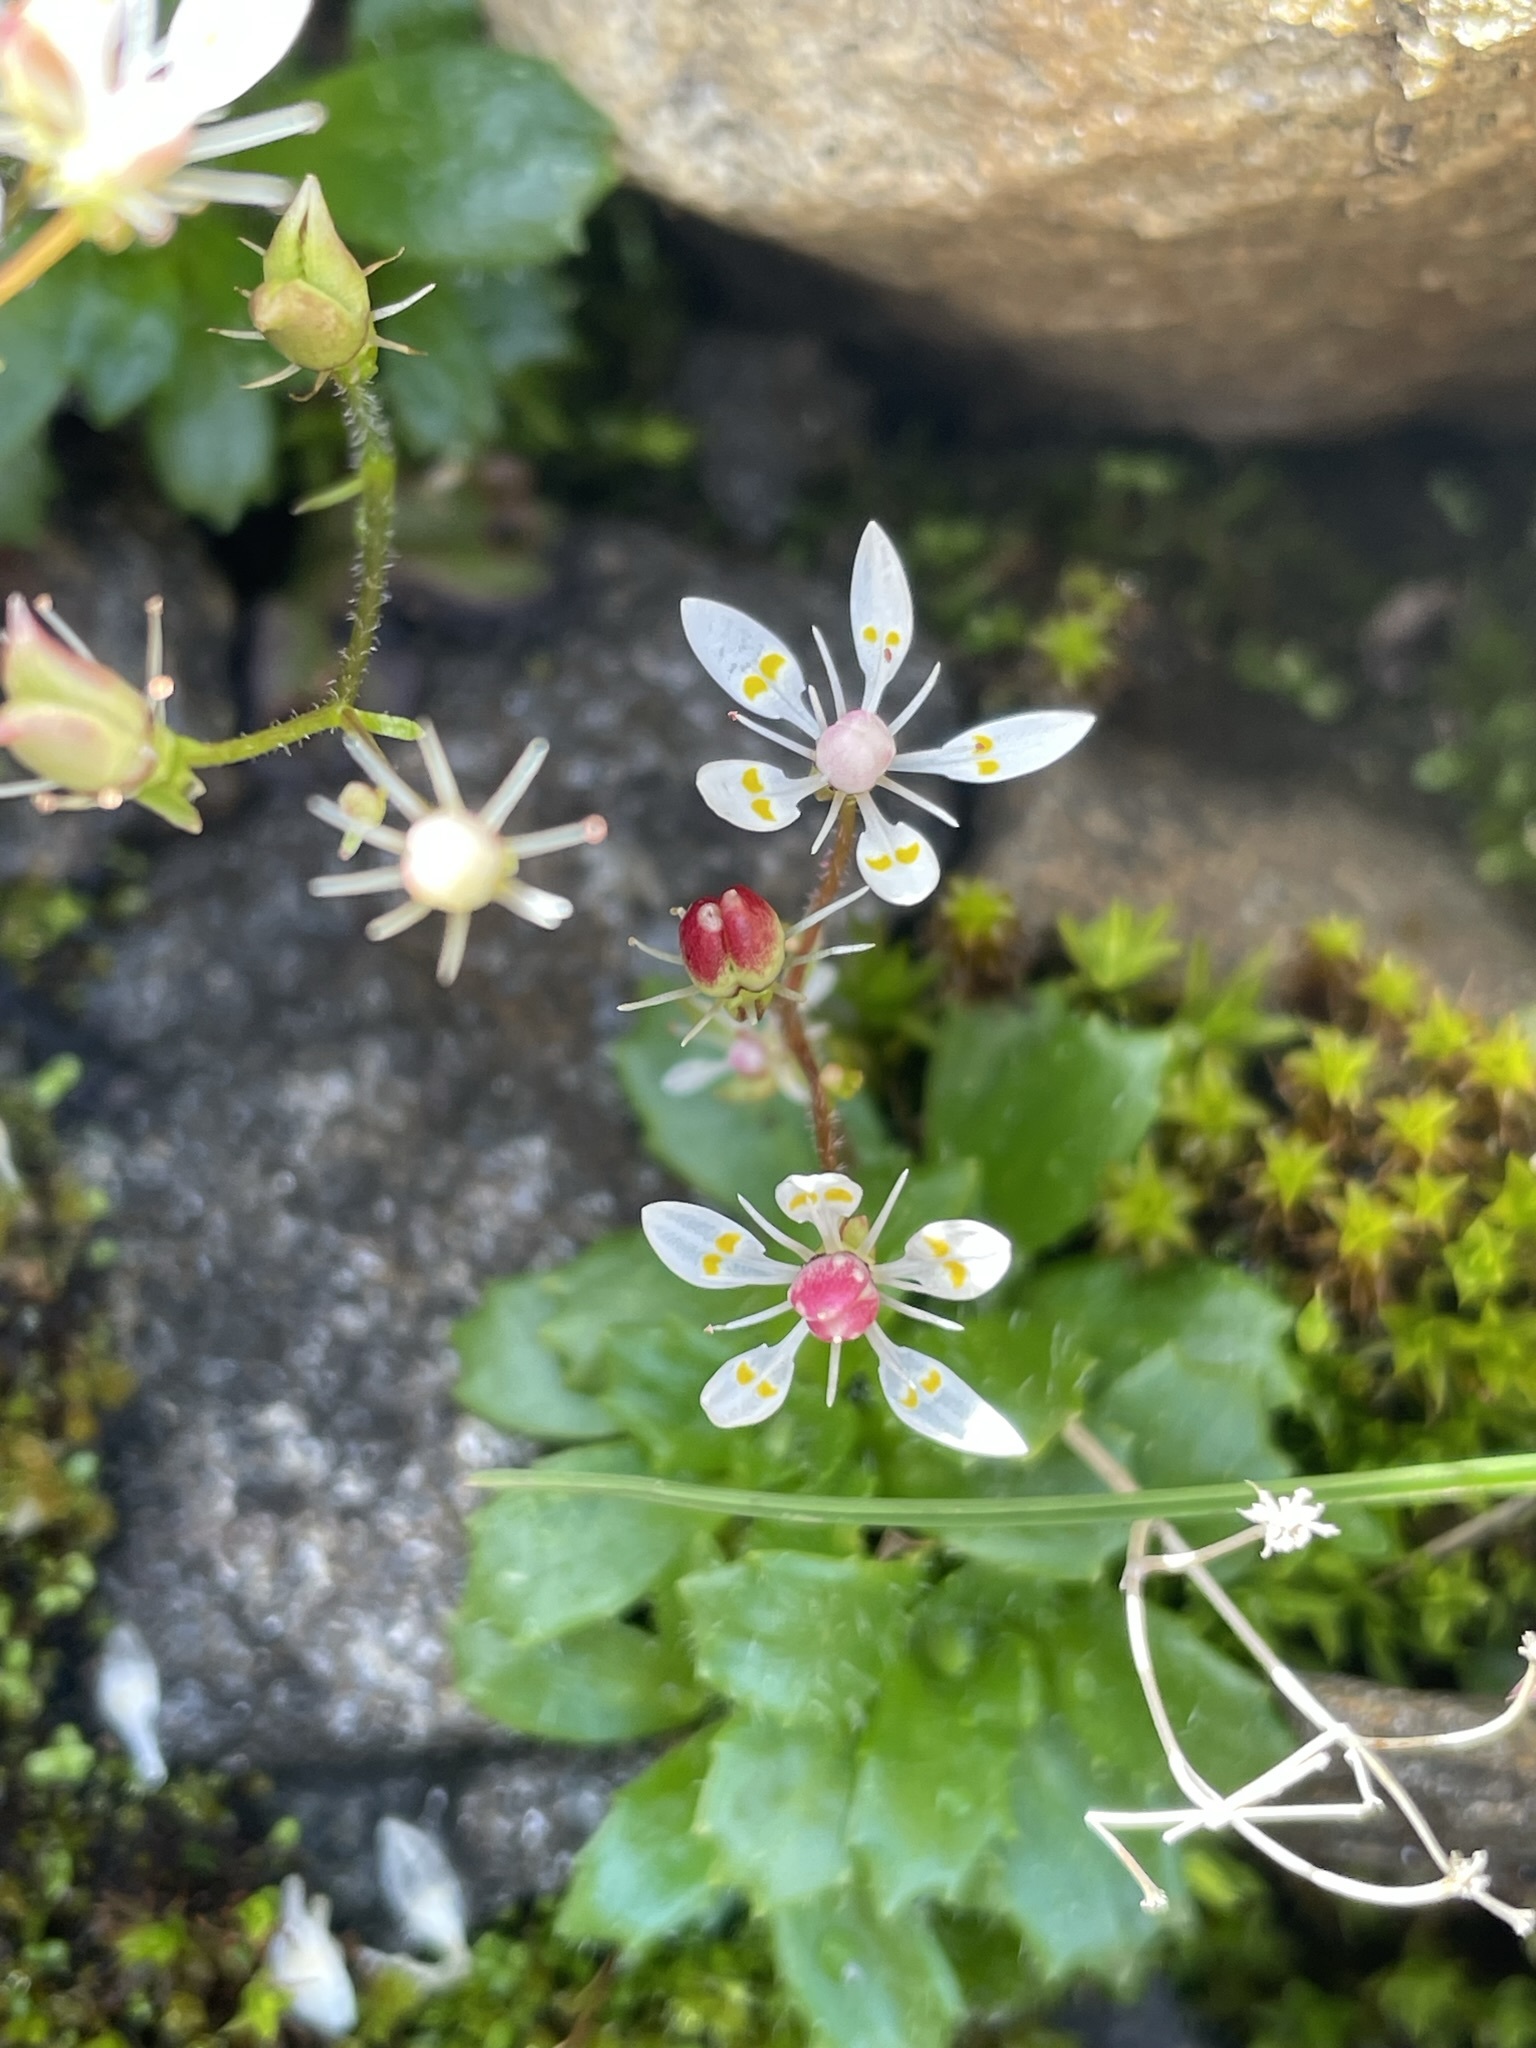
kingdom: Plantae
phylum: Tracheophyta
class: Magnoliopsida
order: Saxifragales
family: Saxifragaceae
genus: Micranthes
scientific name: Micranthes stellaris
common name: Starry saxifrage
